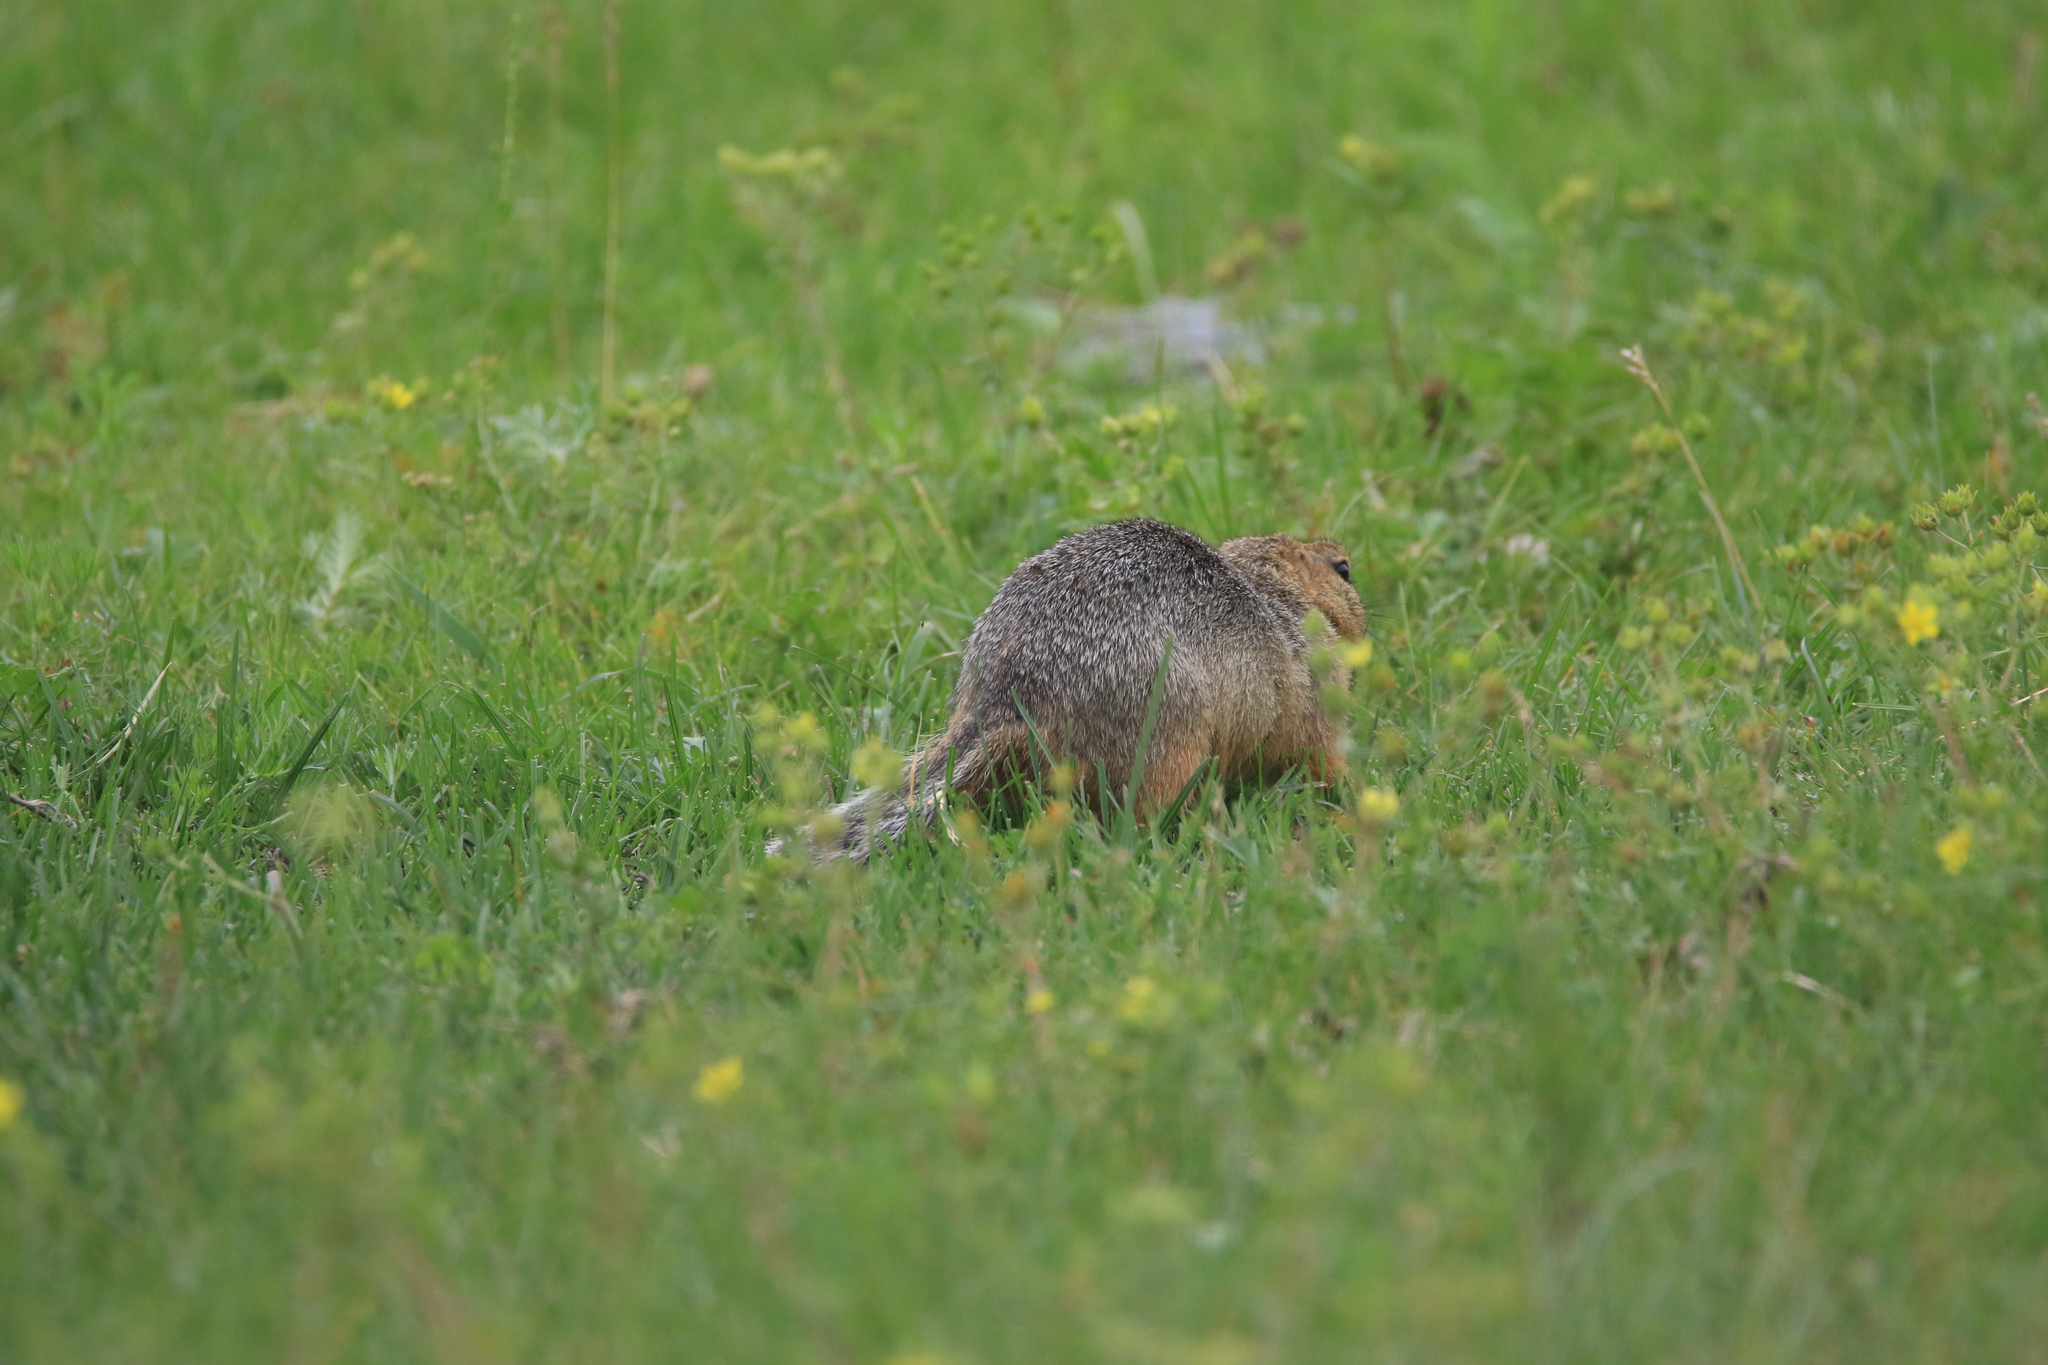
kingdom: Animalia
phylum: Chordata
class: Mammalia
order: Rodentia
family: Sciuridae
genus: Urocitellus
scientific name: Urocitellus undulatus
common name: Long-tailed ground squirrel
